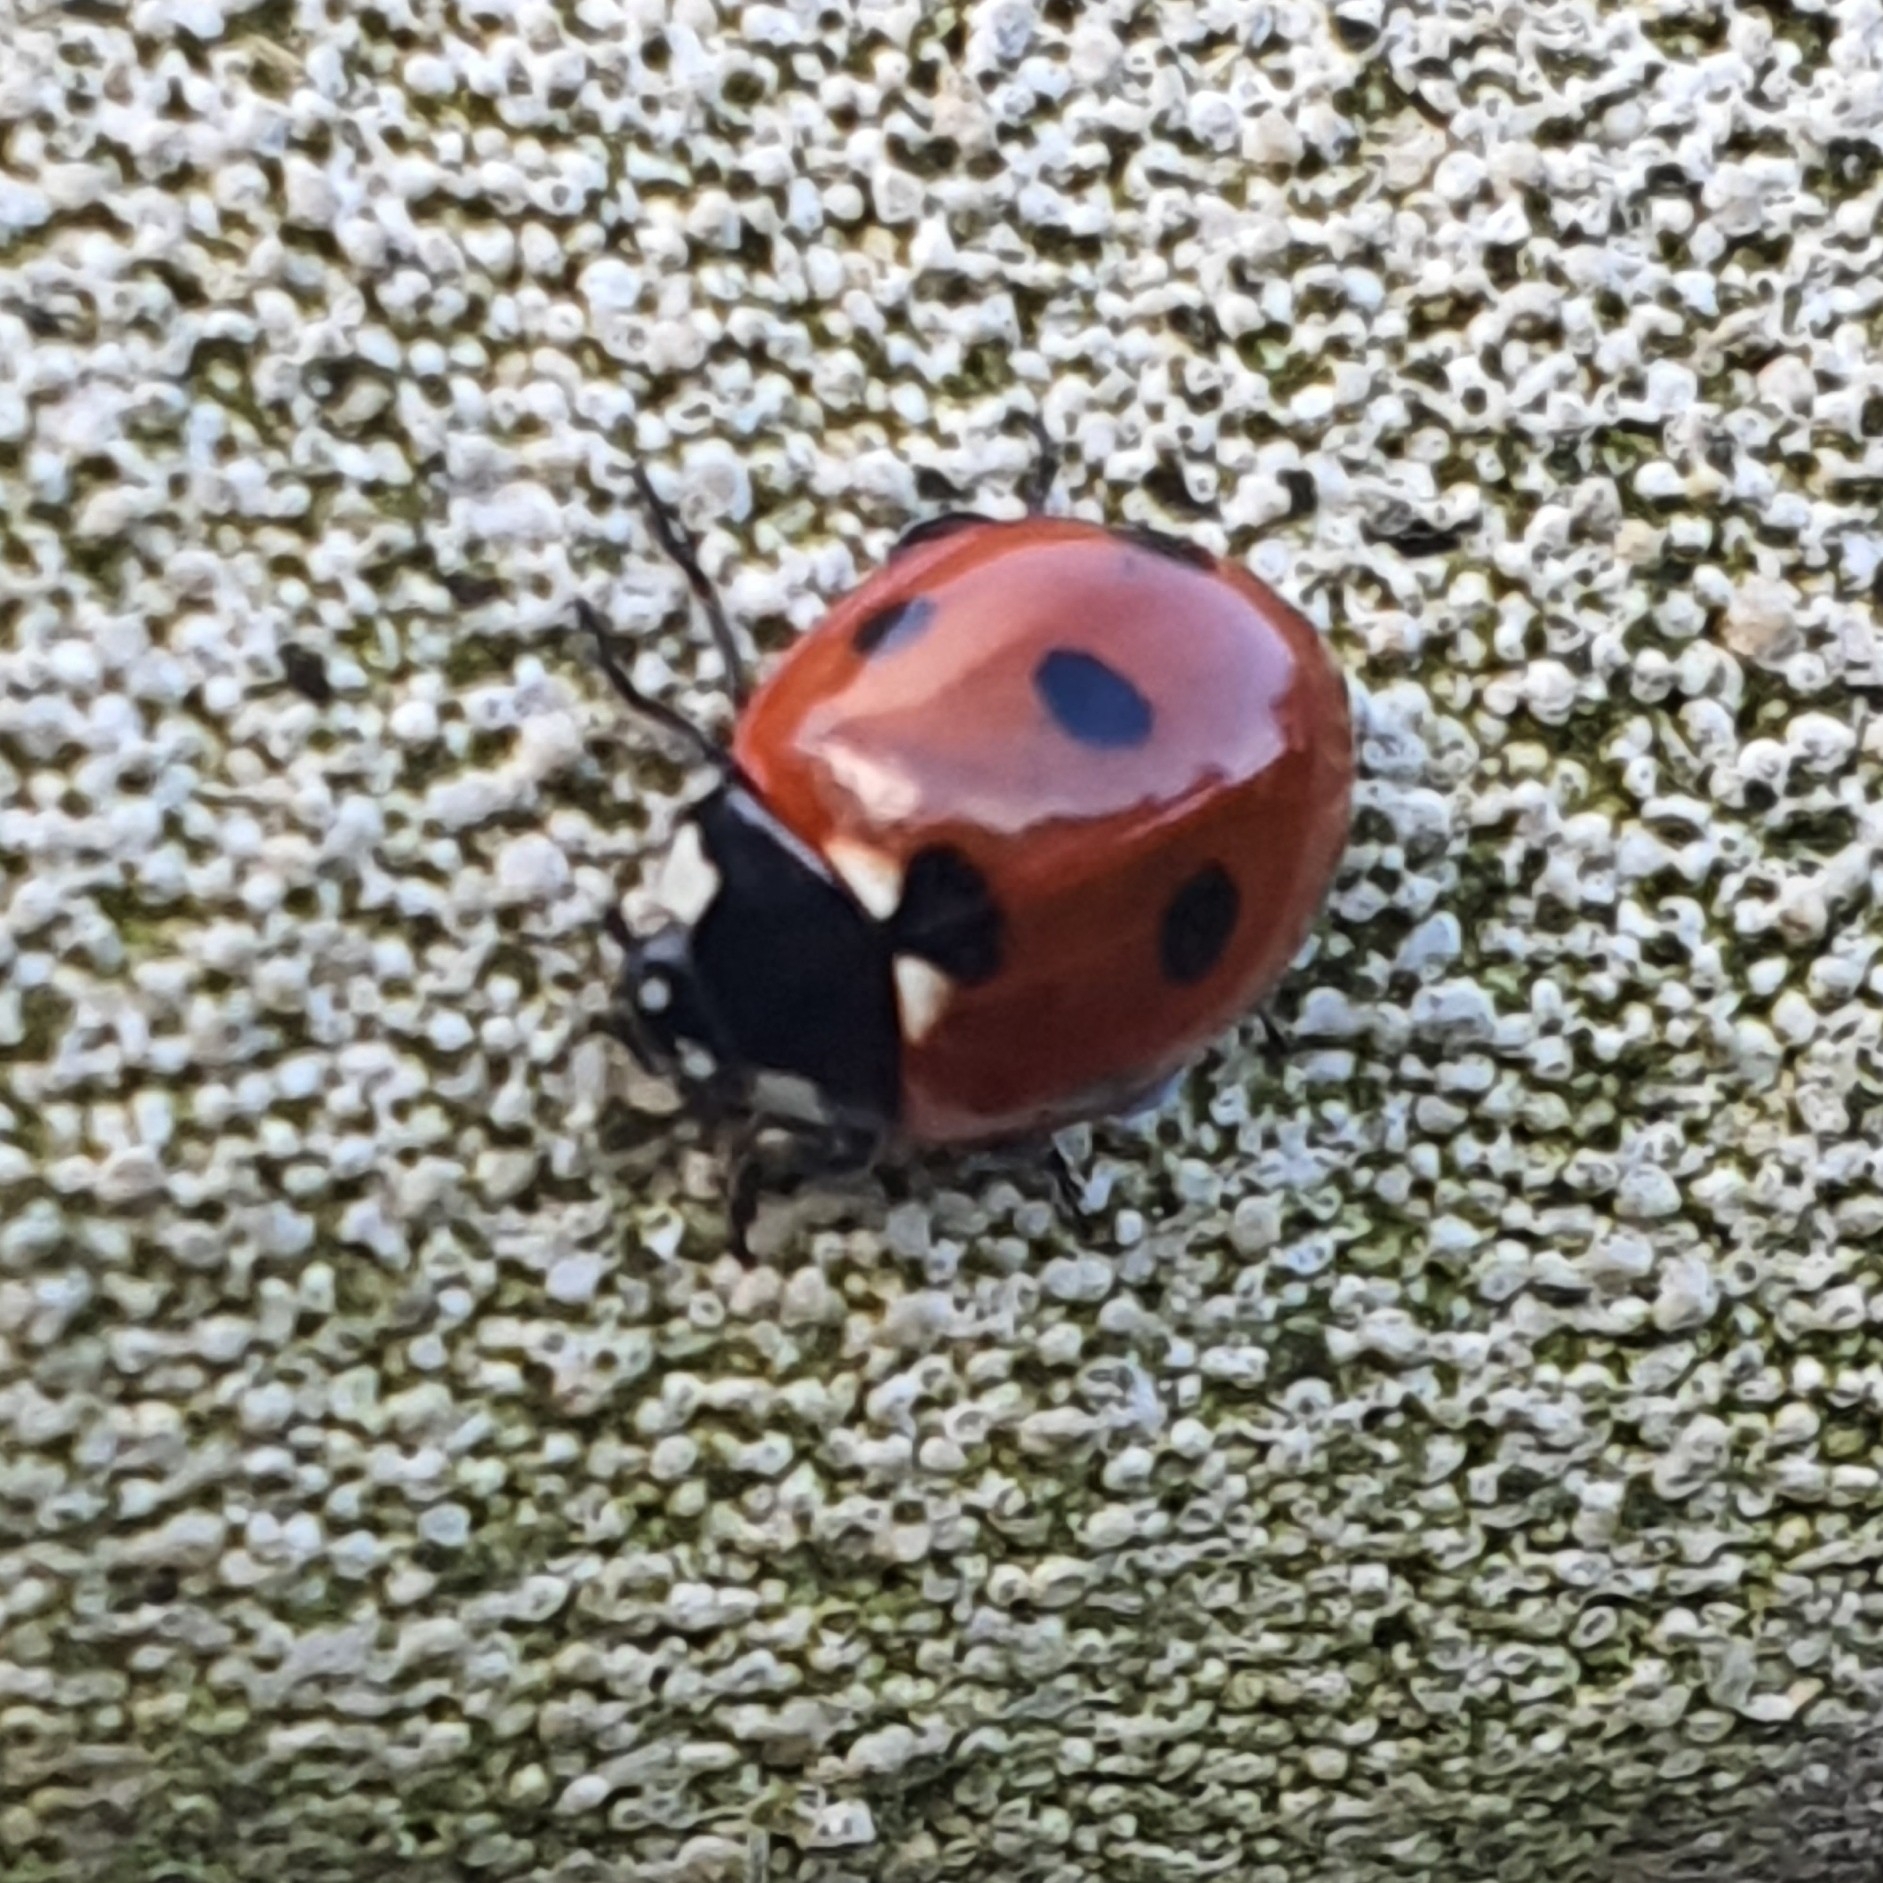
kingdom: Animalia
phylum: Arthropoda
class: Insecta
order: Coleoptera
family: Coccinellidae
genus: Coccinella
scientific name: Coccinella septempunctata
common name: Sevenspotted lady beetle
